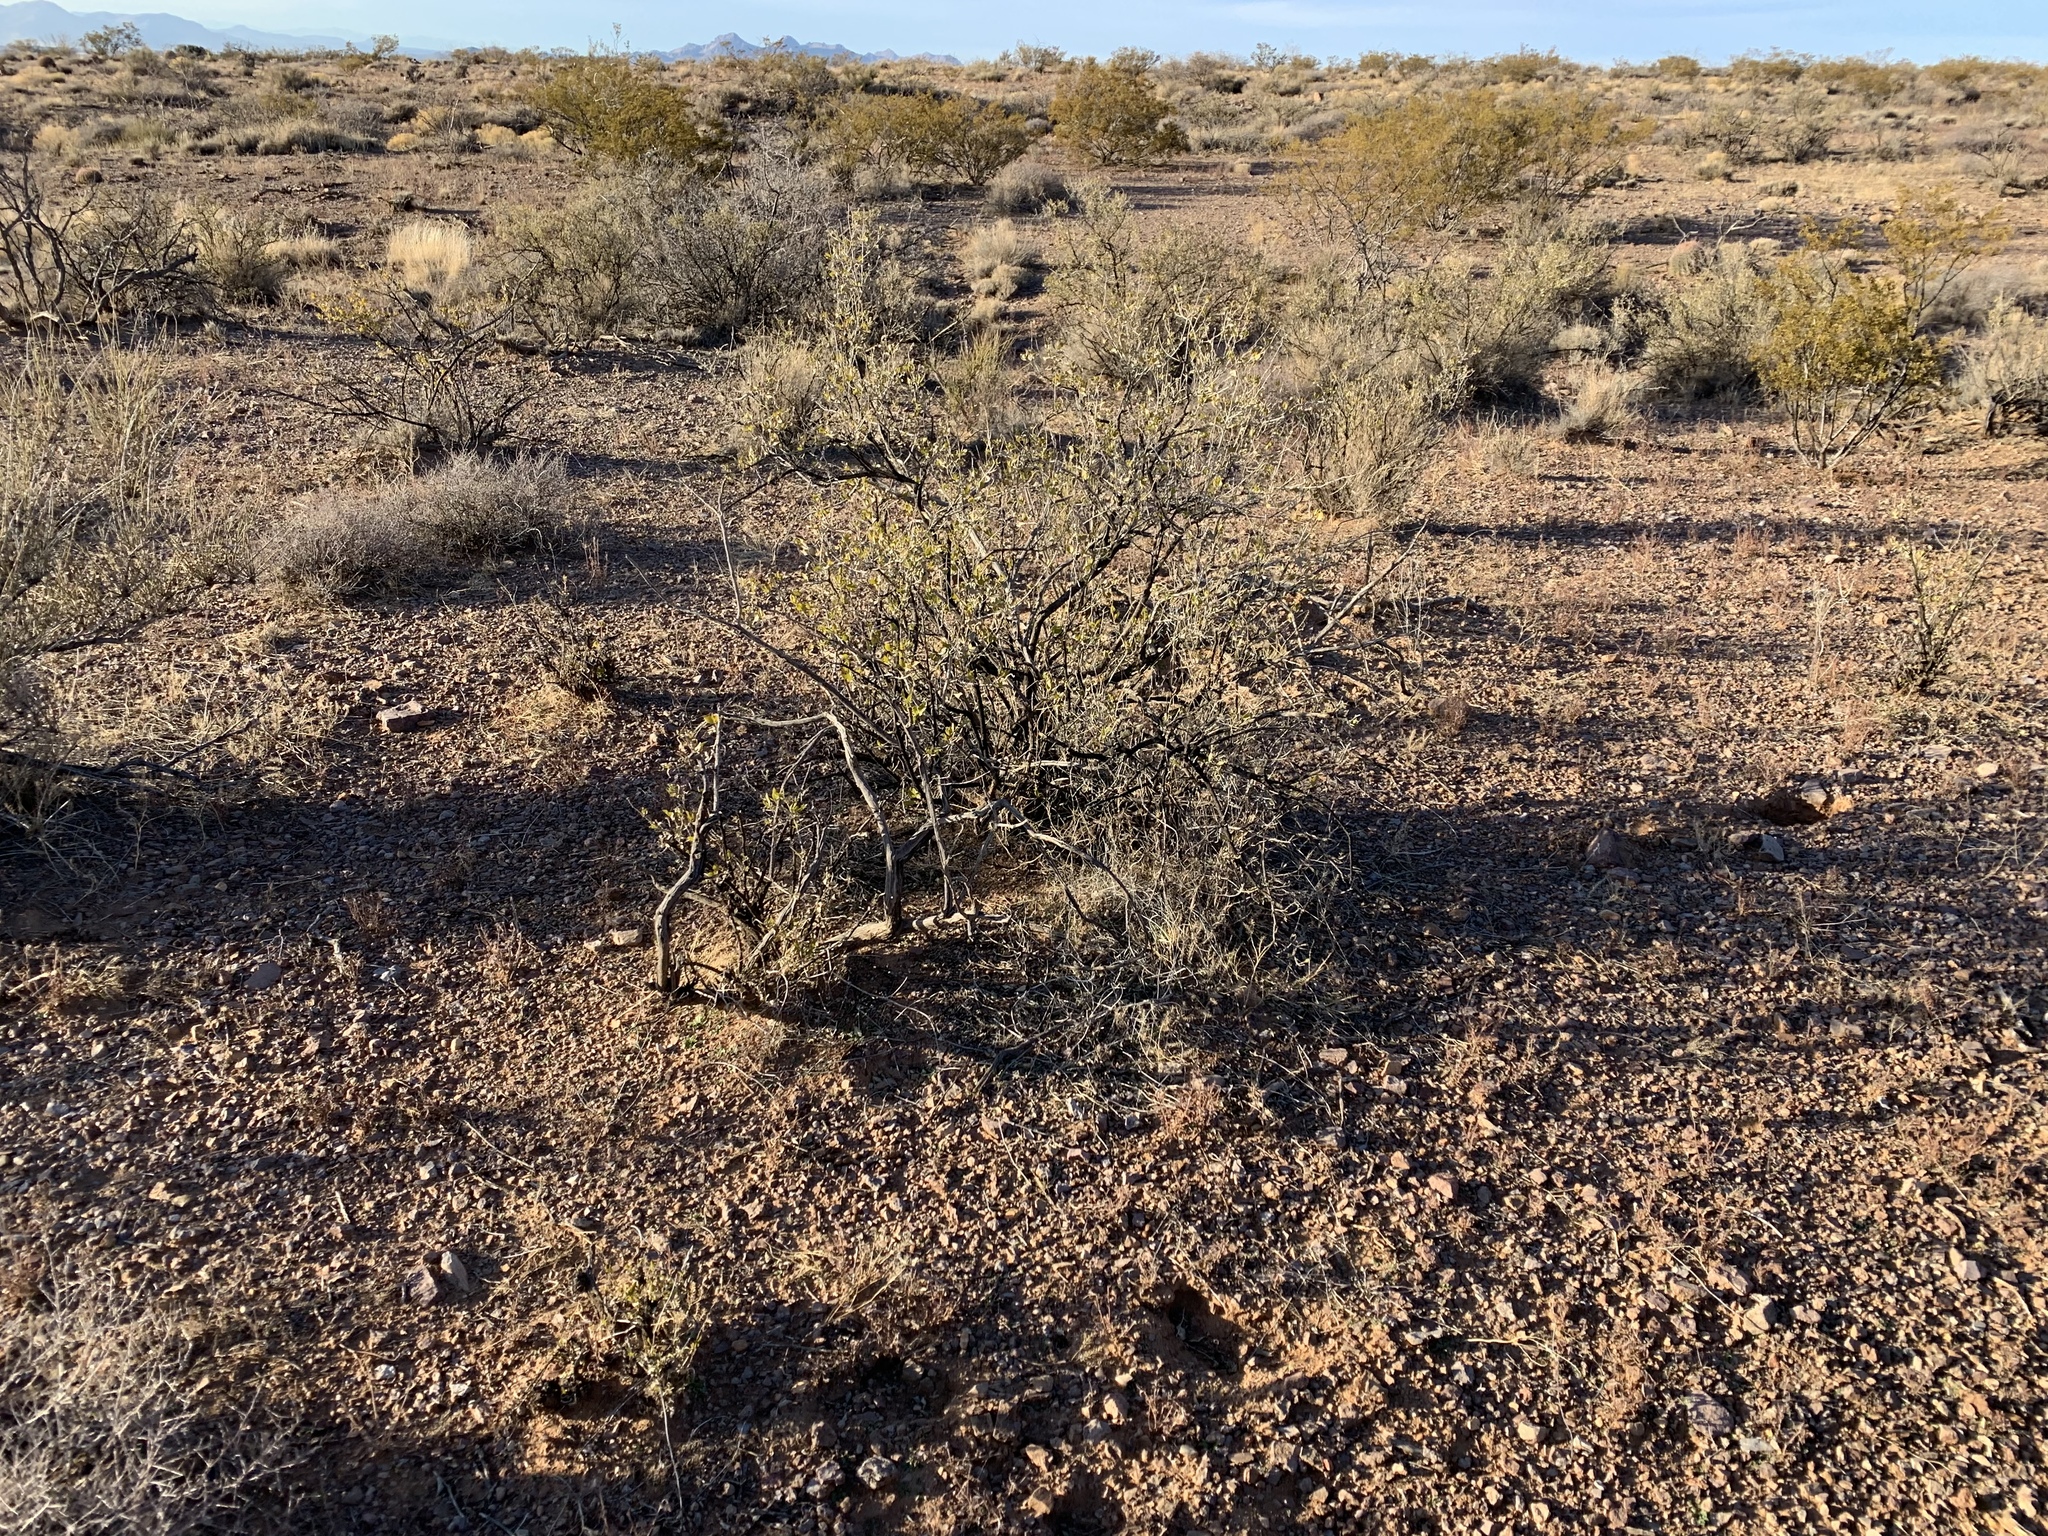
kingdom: Plantae
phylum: Tracheophyta
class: Magnoliopsida
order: Asterales
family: Asteraceae
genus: Flourensia
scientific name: Flourensia cernua
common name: Varnishbush
